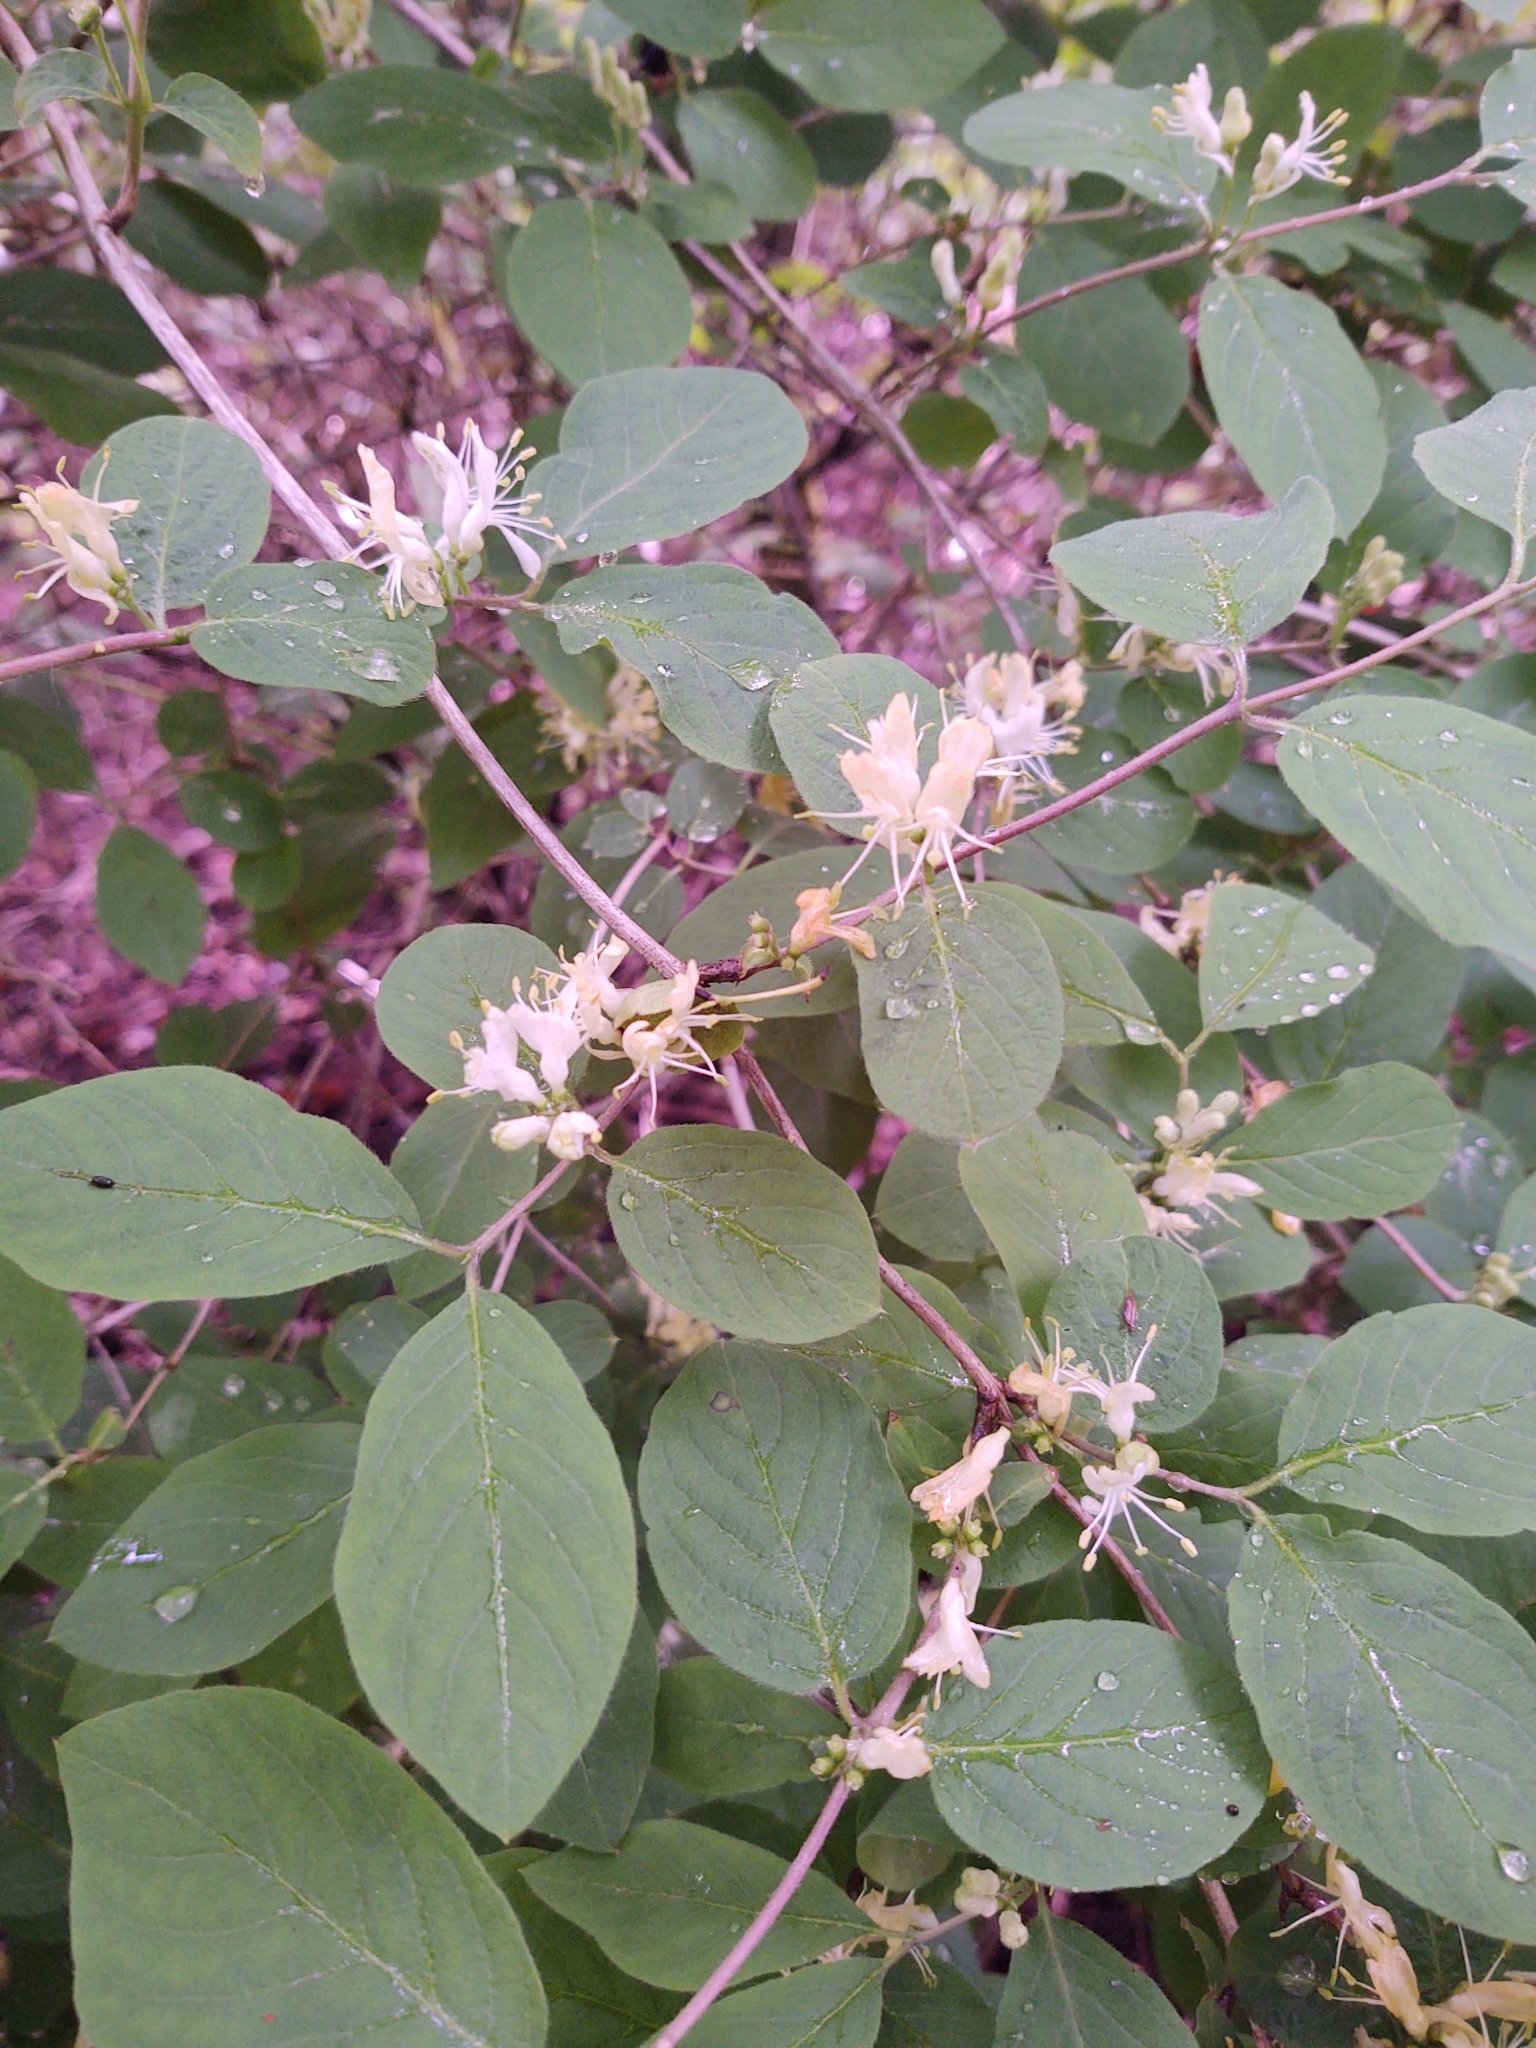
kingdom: Plantae
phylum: Tracheophyta
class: Magnoliopsida
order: Dipsacales
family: Caprifoliaceae
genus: Lonicera
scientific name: Lonicera xylosteum
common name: Fly honeysuckle
